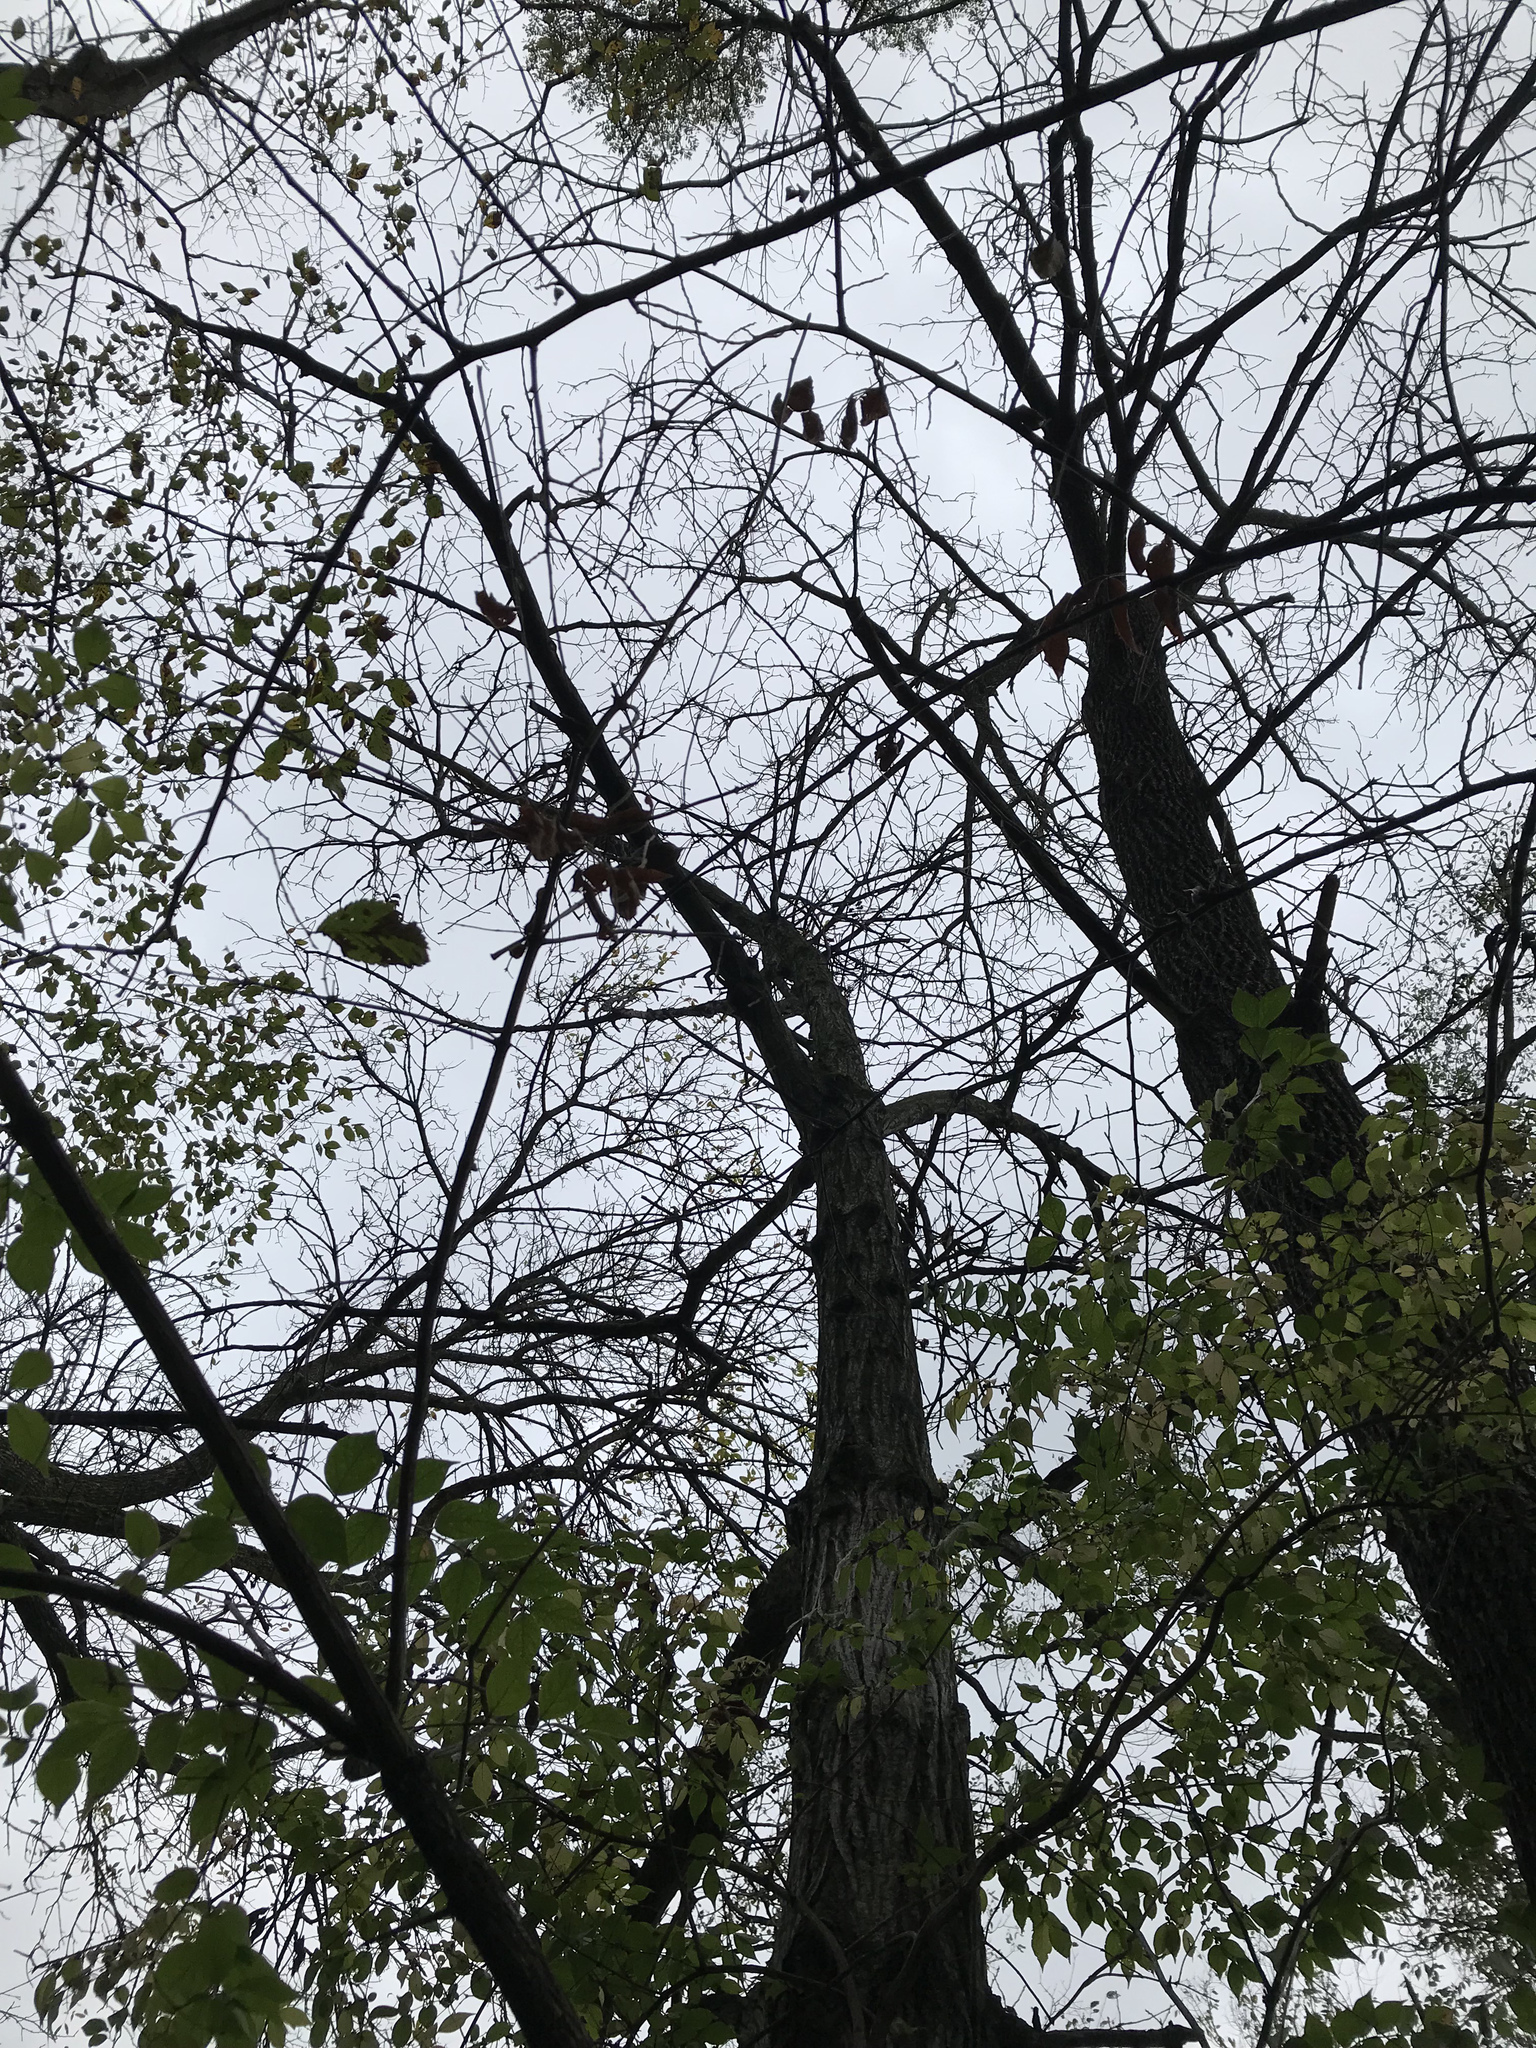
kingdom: Plantae
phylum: Tracheophyta
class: Magnoliopsida
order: Fagales
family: Juglandaceae
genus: Juglans
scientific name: Juglans cinerea
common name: Butternut
